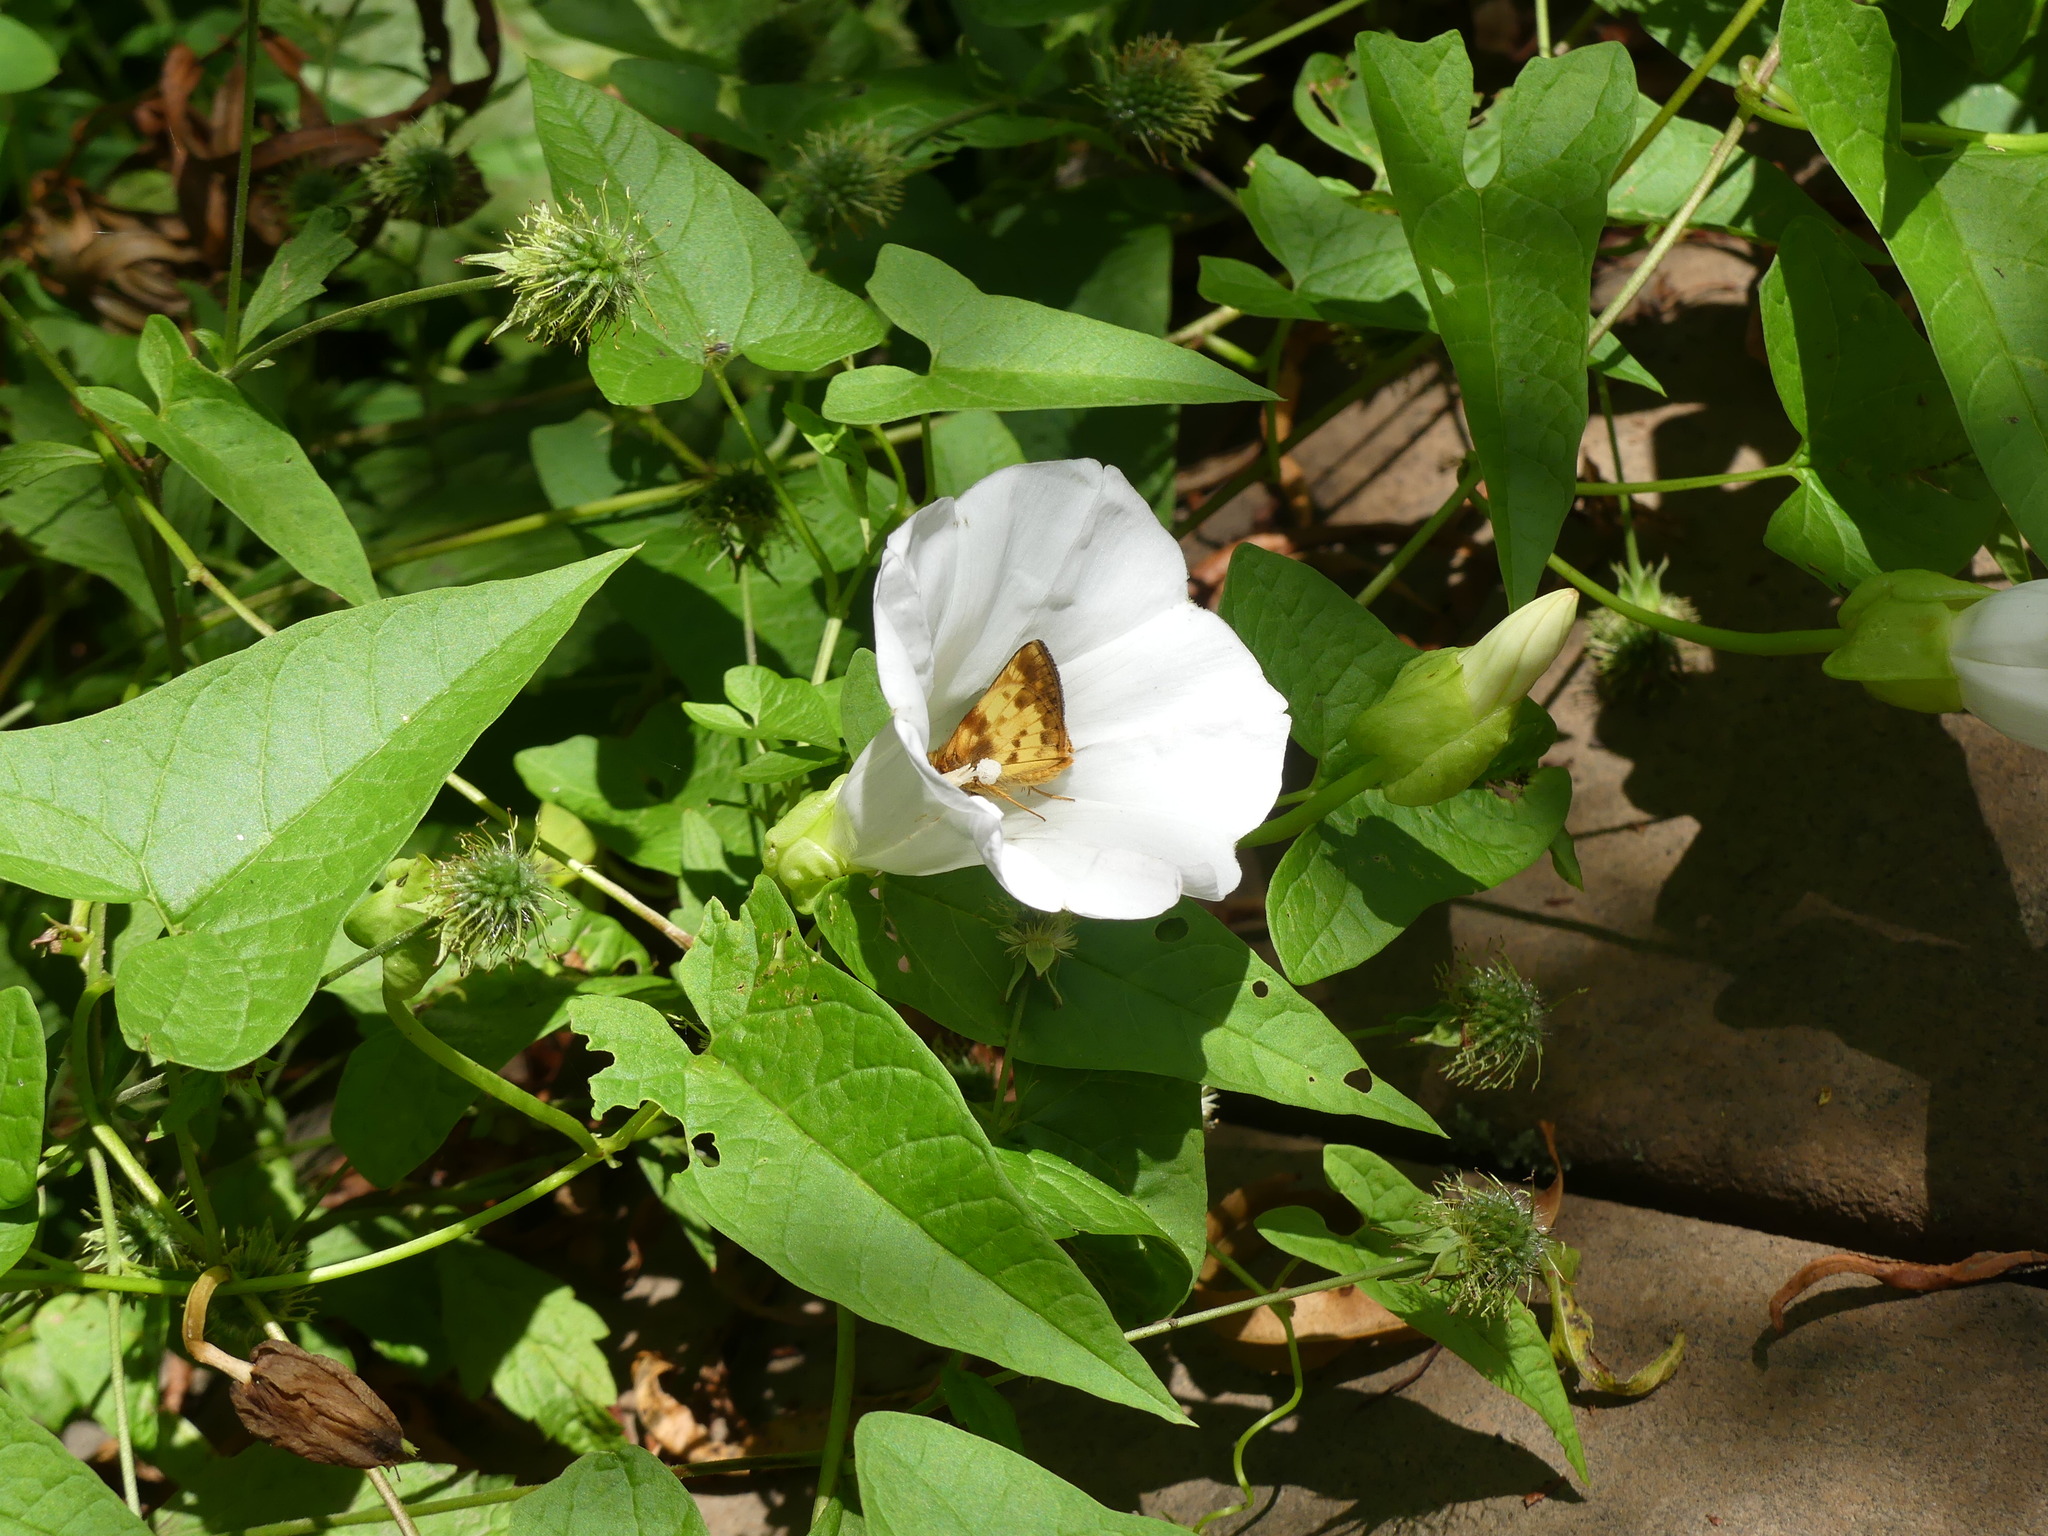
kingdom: Plantae
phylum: Tracheophyta
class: Magnoliopsida
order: Solanales
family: Convolvulaceae
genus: Calystegia
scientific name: Calystegia sepium
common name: Hedge bindweed
